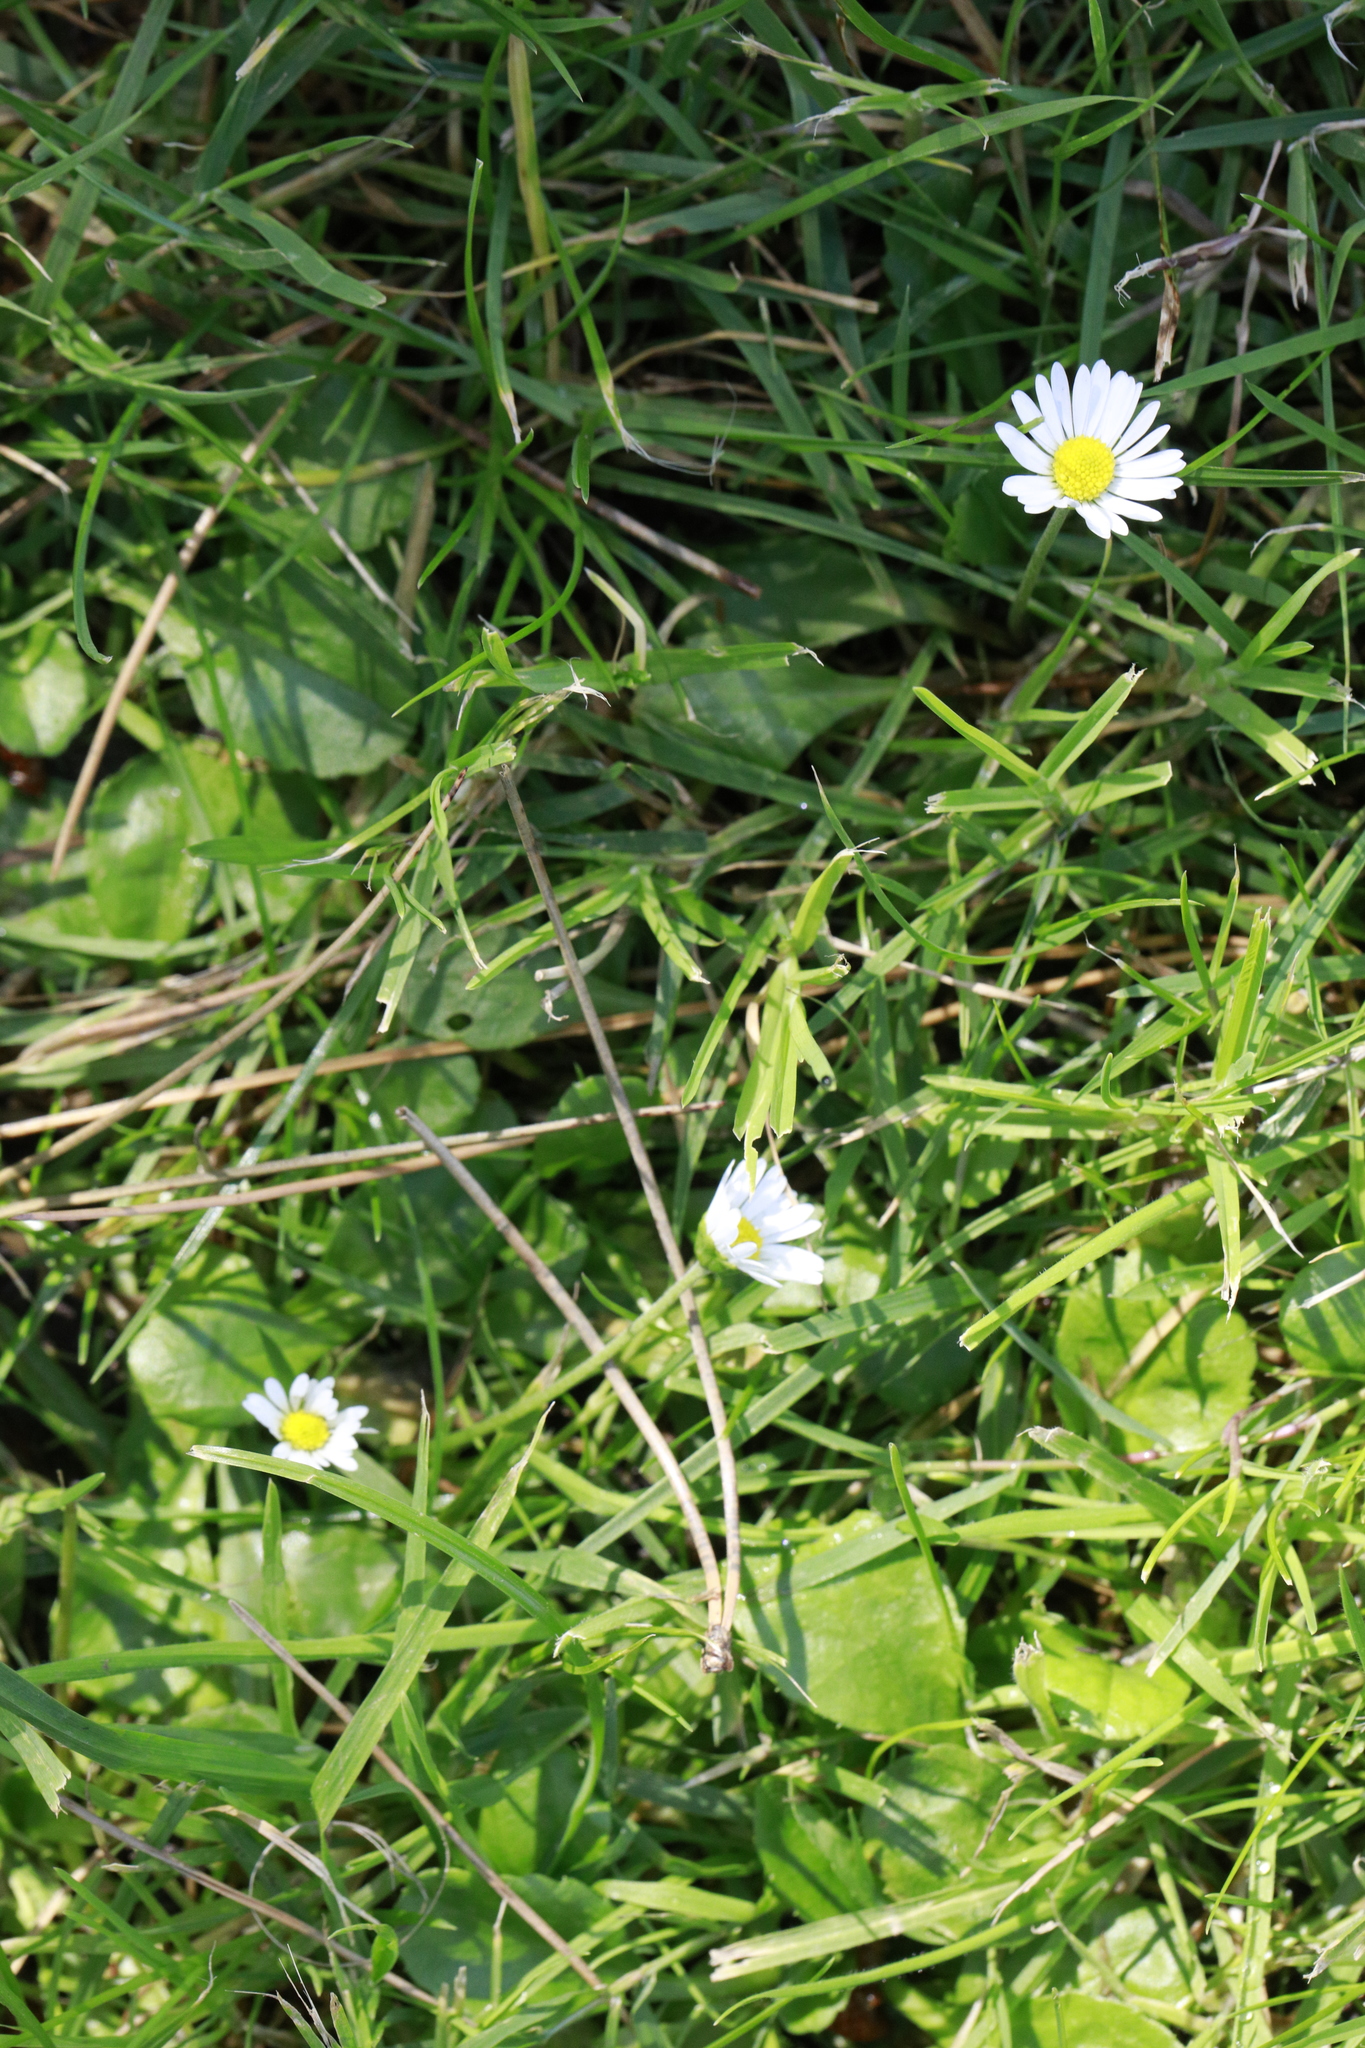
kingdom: Plantae
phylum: Tracheophyta
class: Magnoliopsida
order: Asterales
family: Asteraceae
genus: Bellis
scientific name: Bellis perennis
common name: Lawndaisy
